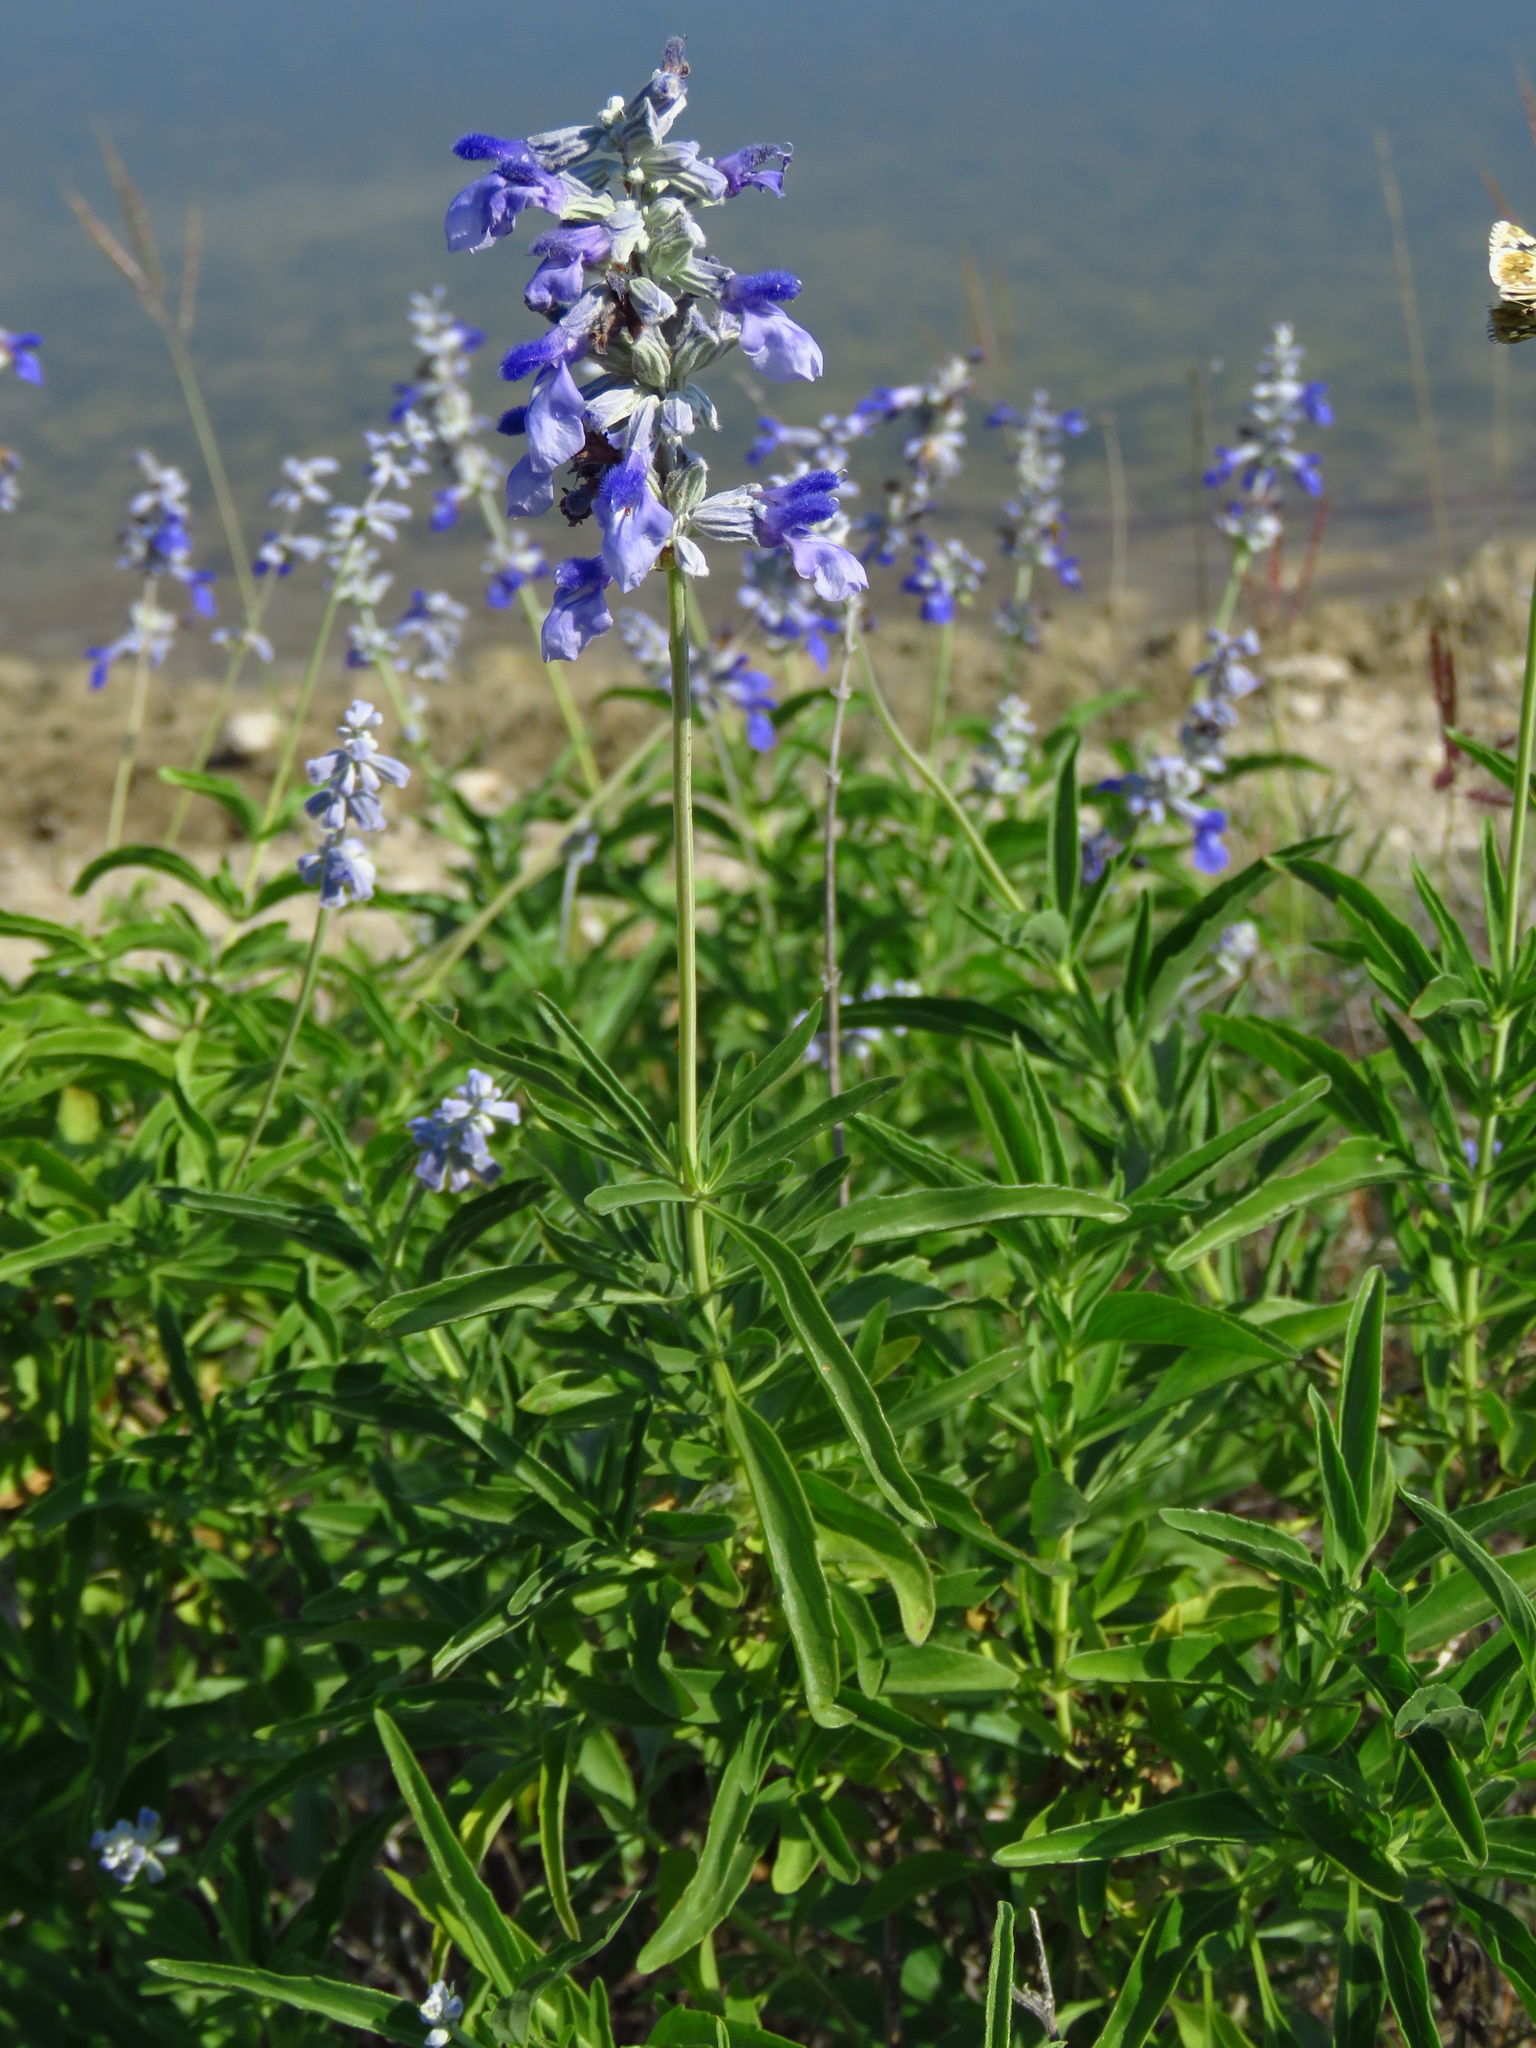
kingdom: Plantae
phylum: Tracheophyta
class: Magnoliopsida
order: Lamiales
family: Lamiaceae
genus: Salvia
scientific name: Salvia farinacea
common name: Mealy sage
